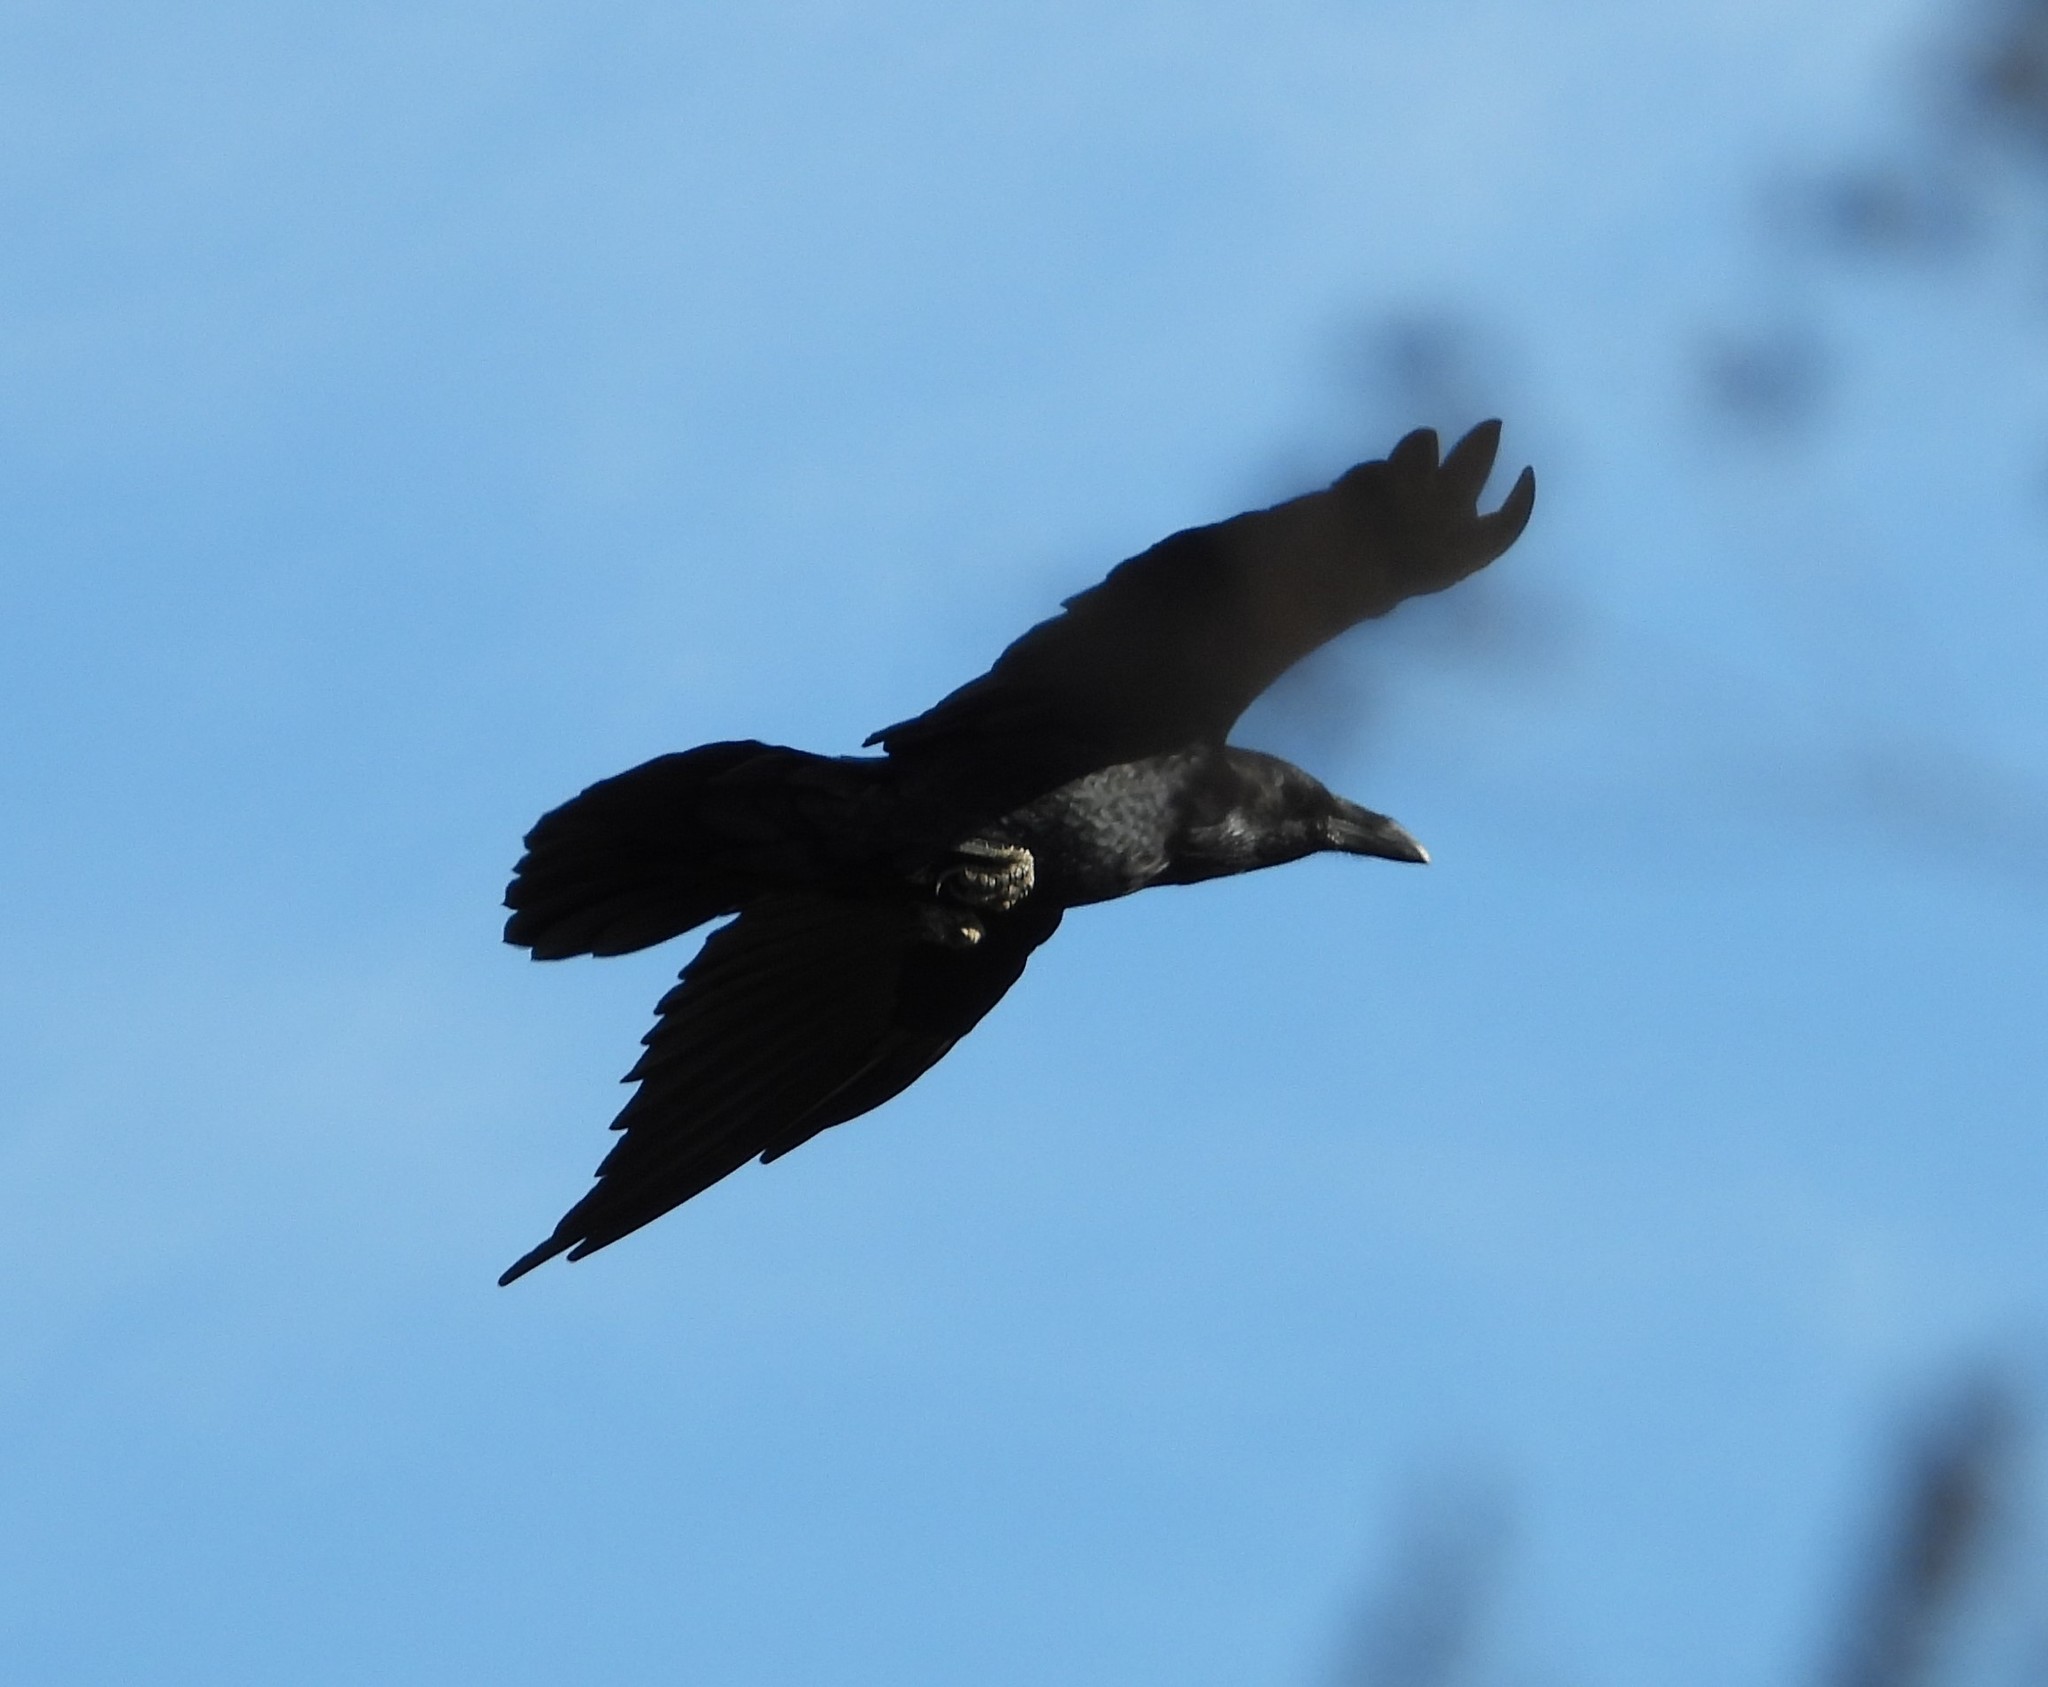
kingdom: Animalia
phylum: Chordata
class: Aves
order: Passeriformes
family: Corvidae
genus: Corvus
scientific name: Corvus corax
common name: Common raven
